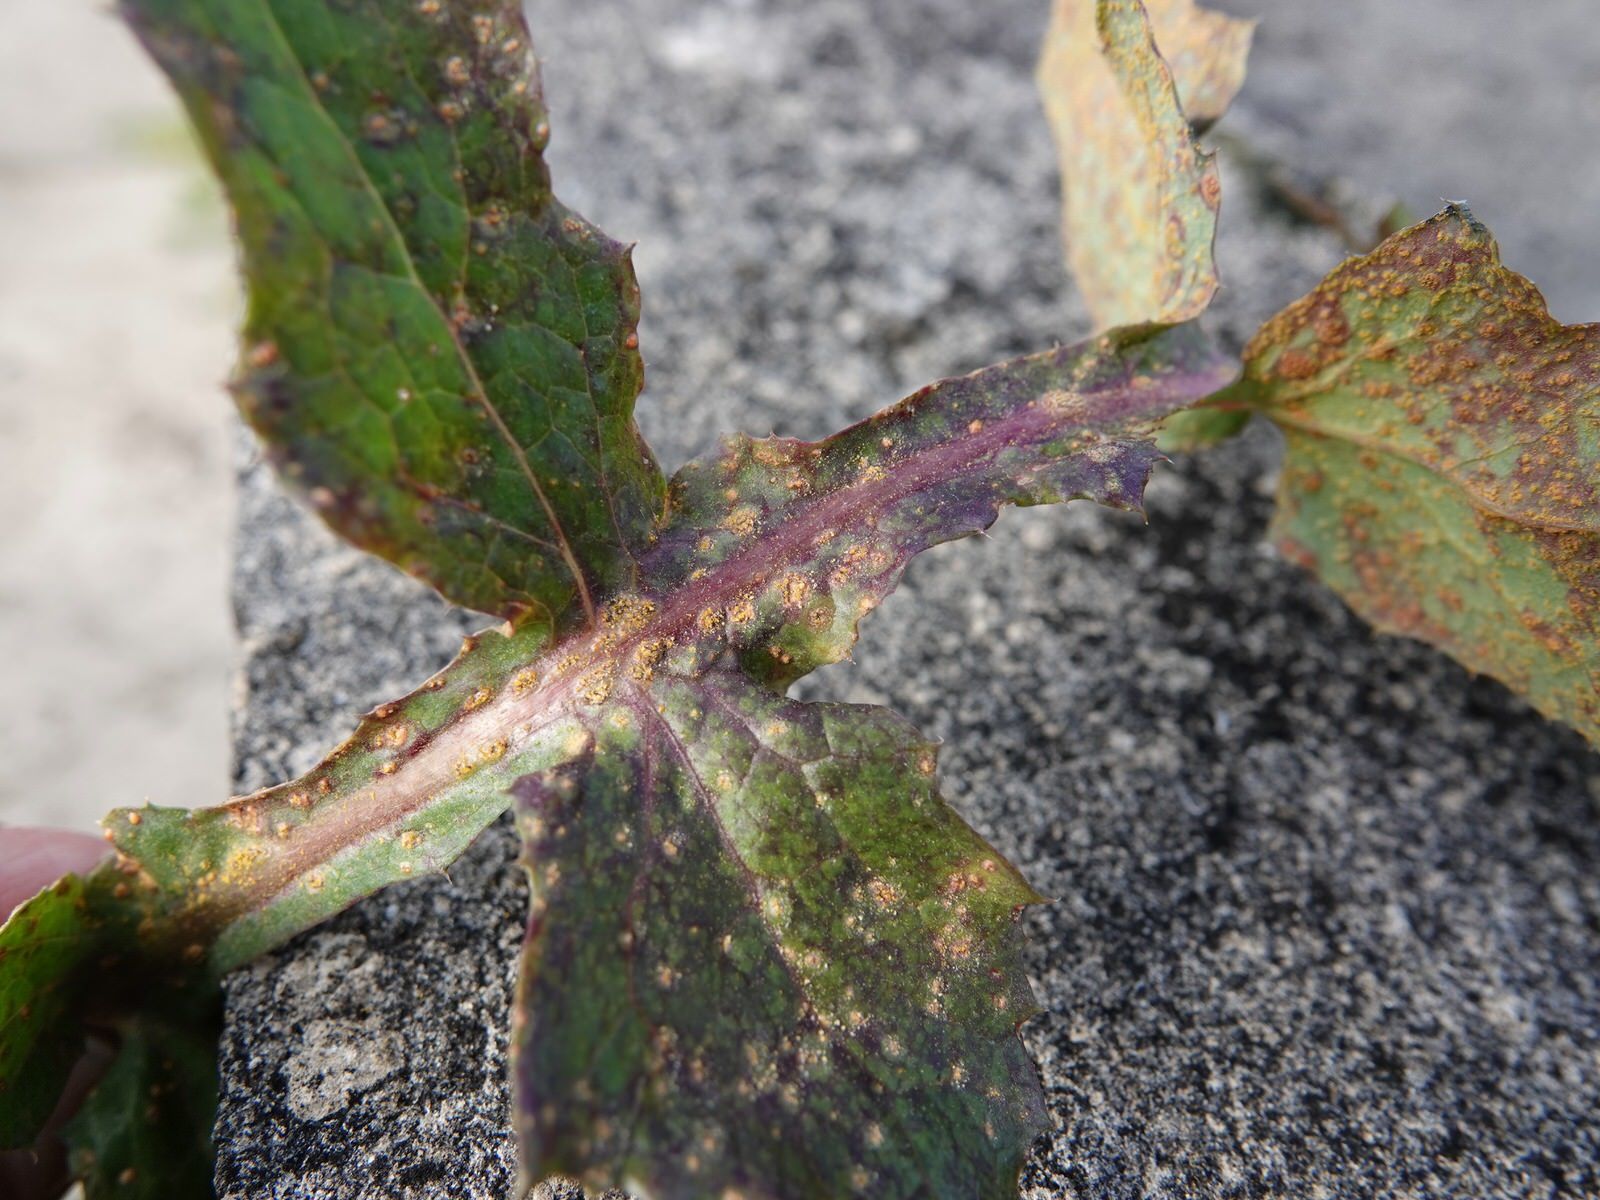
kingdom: Fungi
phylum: Basidiomycota
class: Pucciniomycetes
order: Pucciniales
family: Pucciniaceae
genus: Peristemma
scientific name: Peristemma pseudosphaeria
